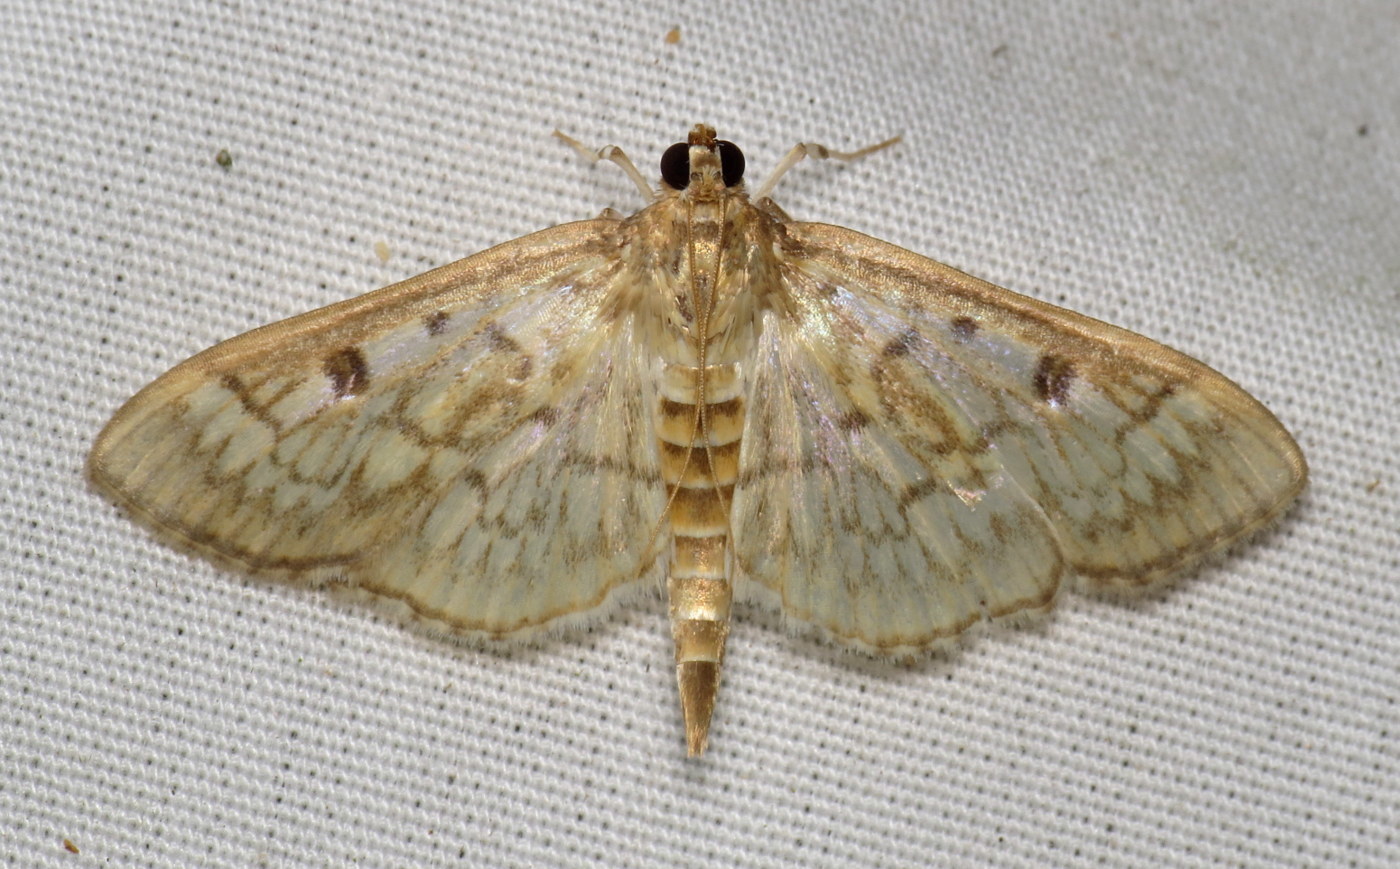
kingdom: Animalia
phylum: Arthropoda
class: Insecta
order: Lepidoptera
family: Crambidae
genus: Herpetogramma
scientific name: Herpetogramma pertextalis
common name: Bold-feathered grass moth
